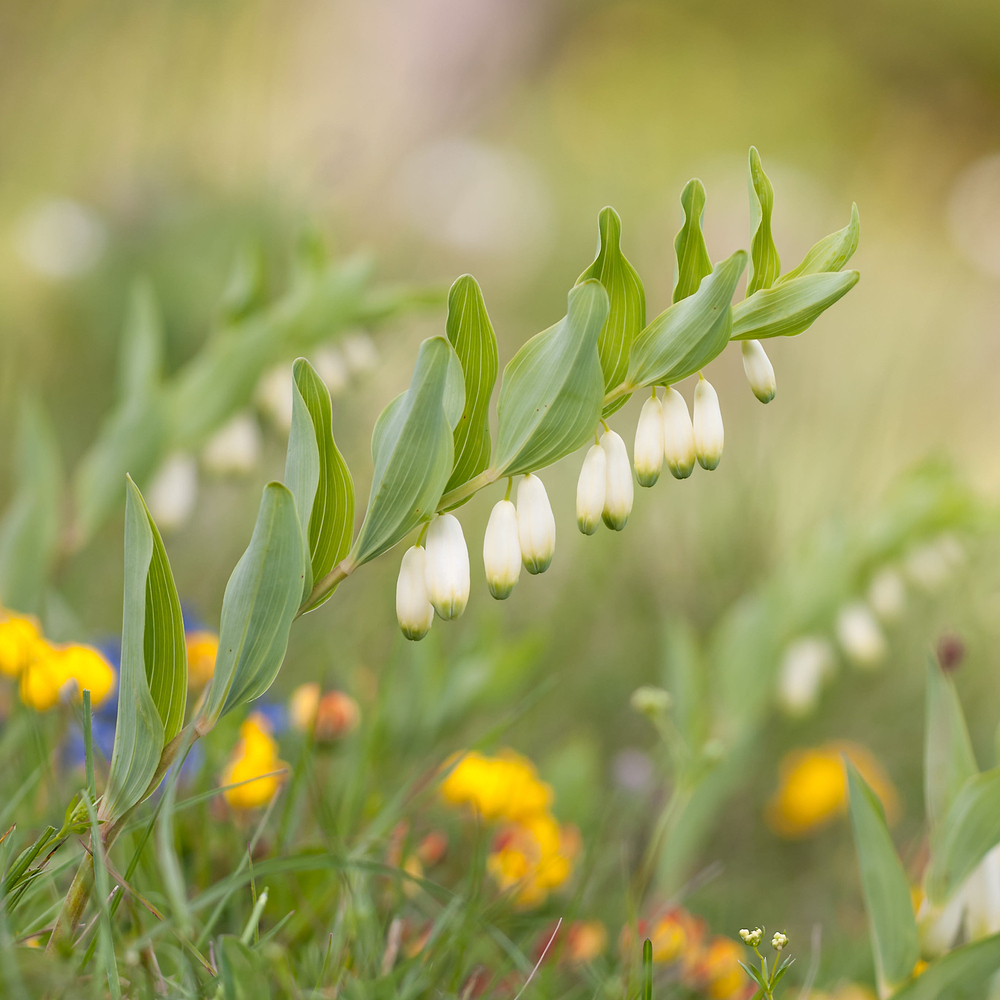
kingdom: Plantae
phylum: Tracheophyta
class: Liliopsida
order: Asparagales
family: Asparagaceae
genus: Polygonatum
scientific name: Polygonatum odoratum
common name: Angular solomon's-seal
